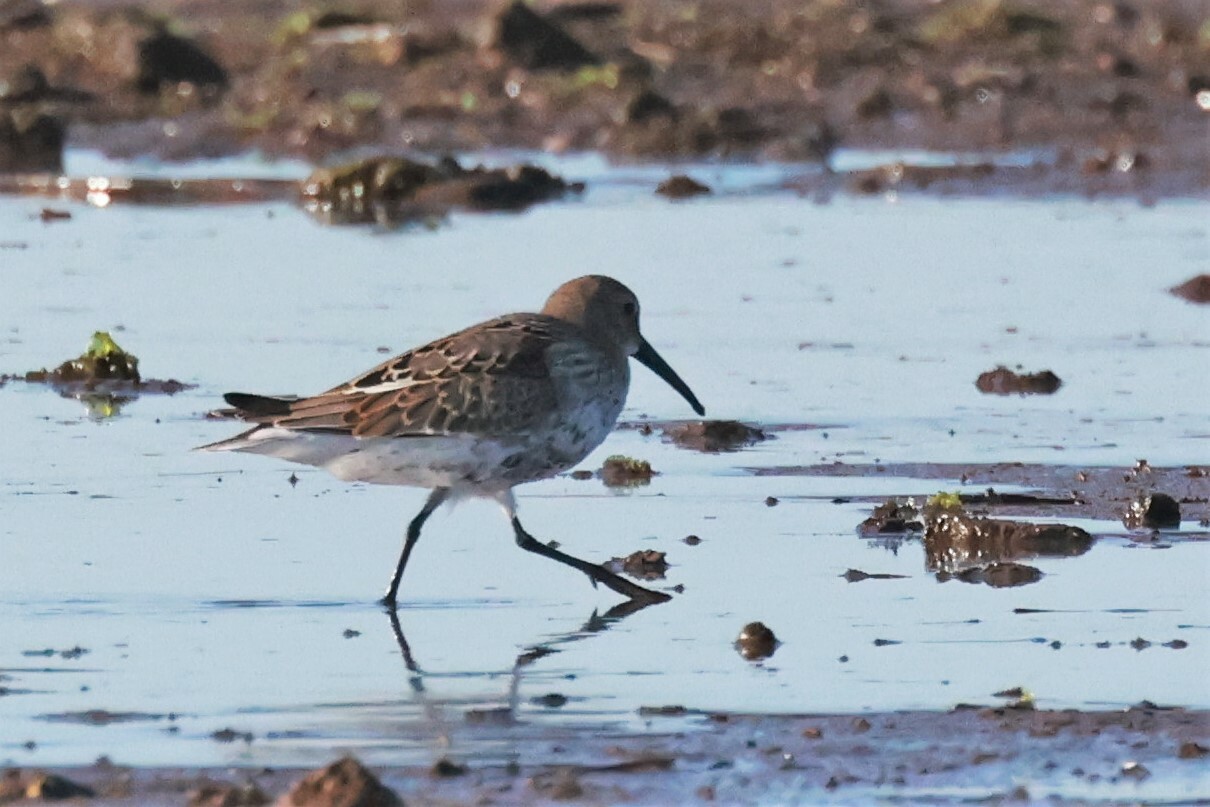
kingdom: Animalia
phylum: Chordata
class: Aves
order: Charadriiformes
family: Scolopacidae
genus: Calidris
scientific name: Calidris alpina
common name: Dunlin
